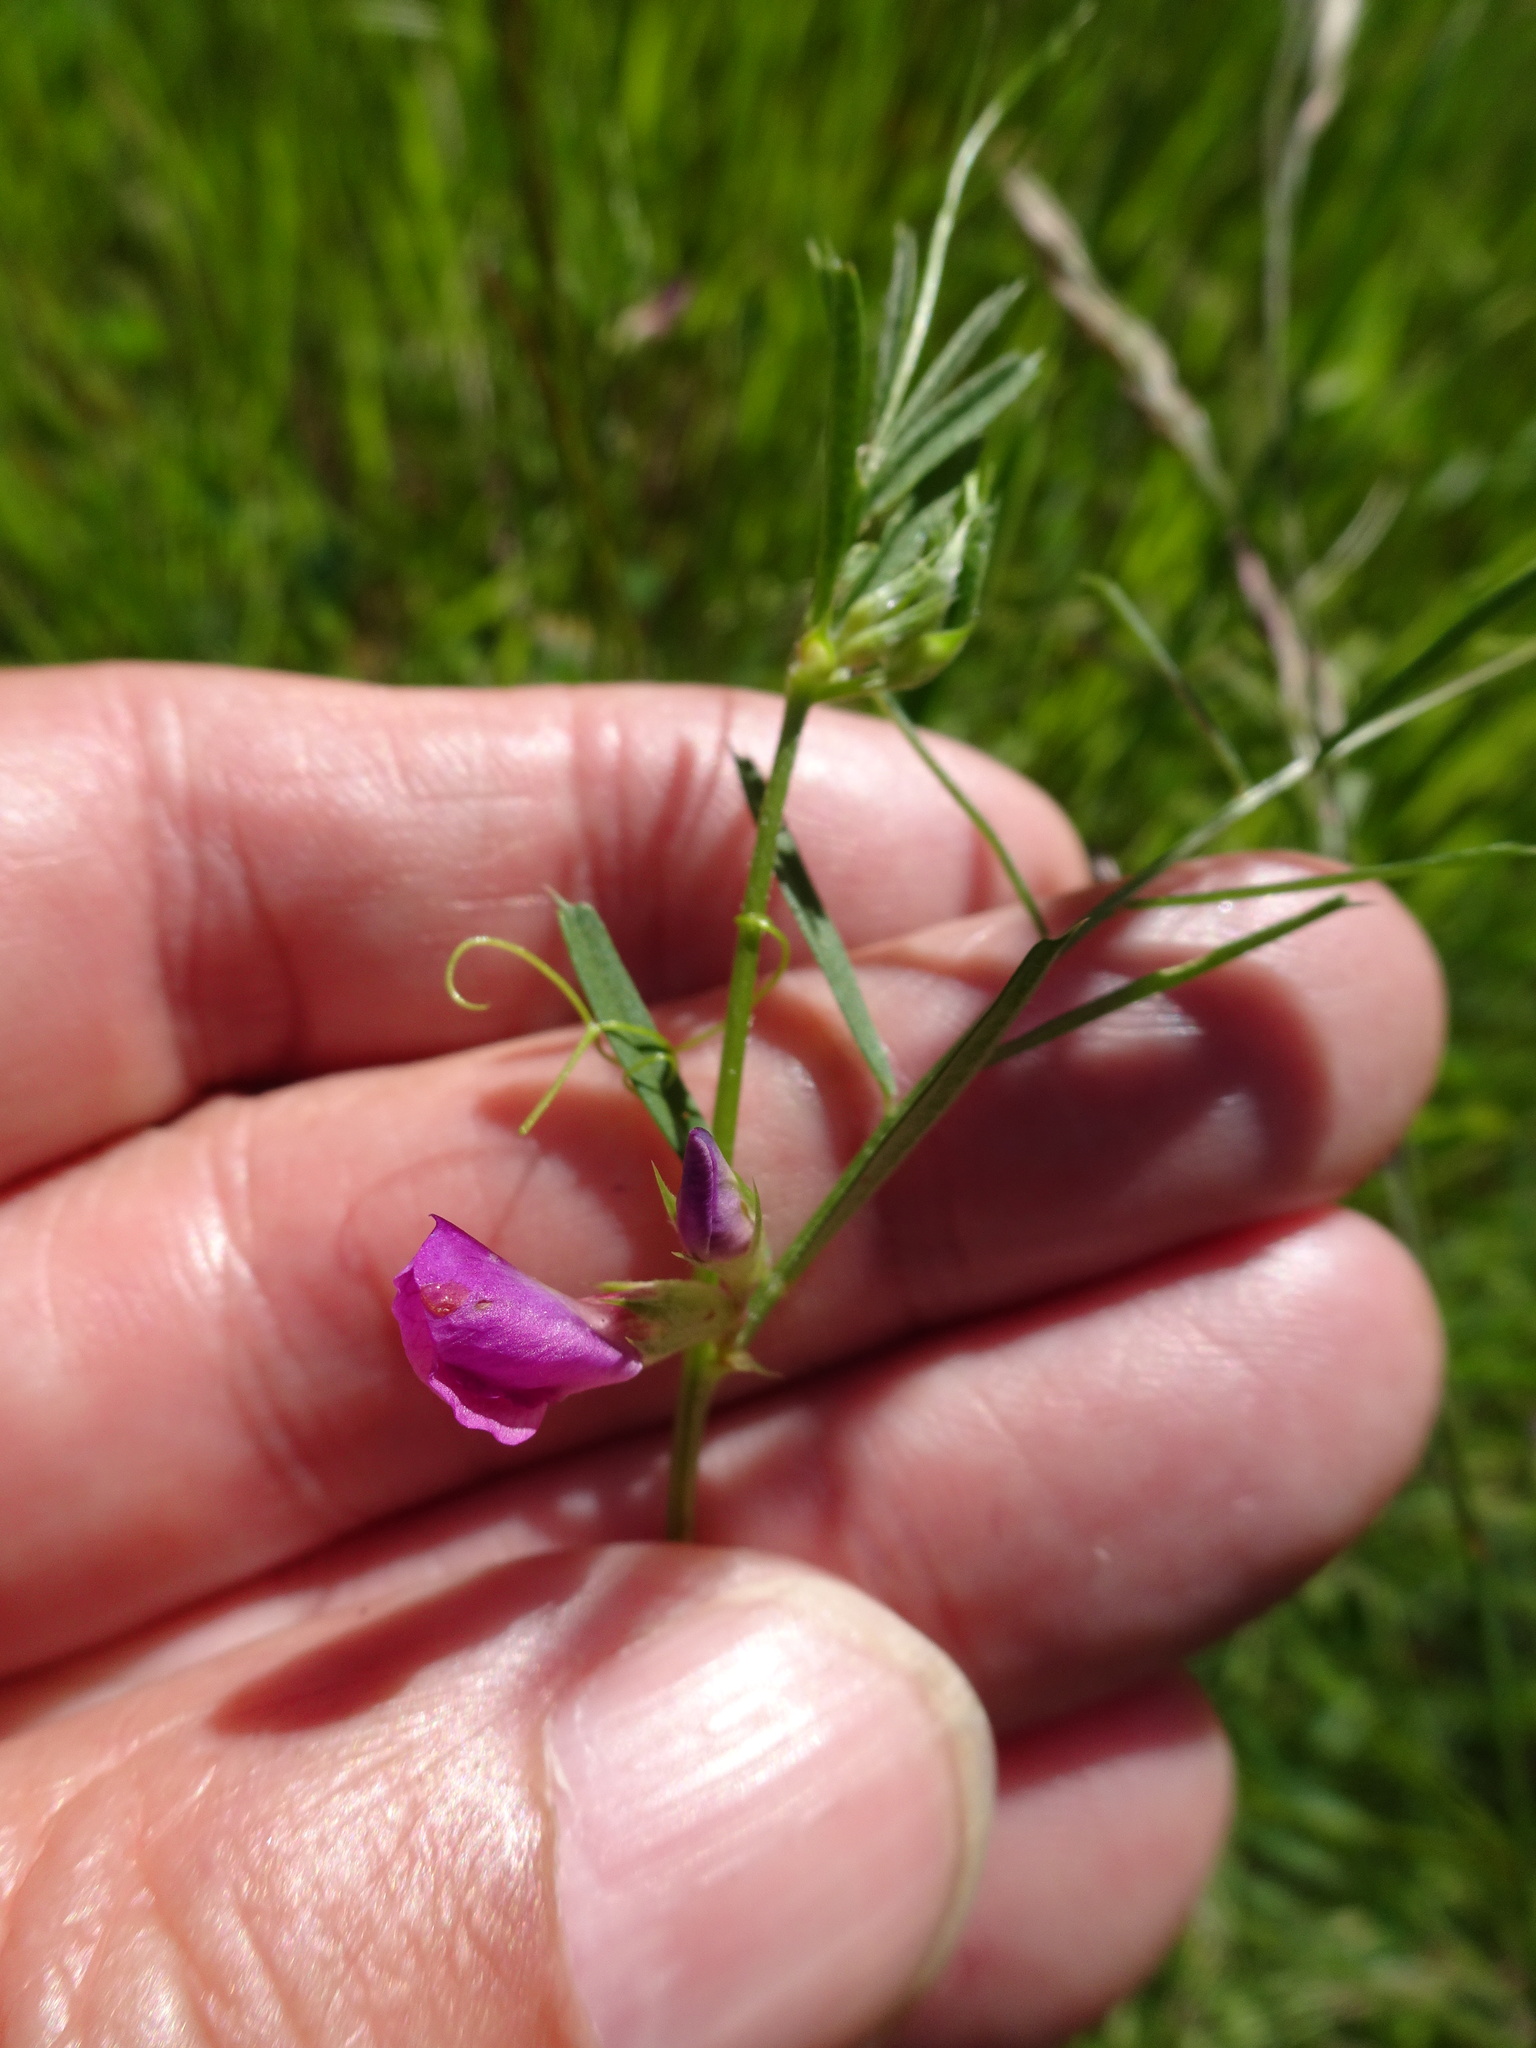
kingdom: Plantae
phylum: Tracheophyta
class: Magnoliopsida
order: Fabales
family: Fabaceae
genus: Vicia
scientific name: Vicia sativa
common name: Garden vetch
